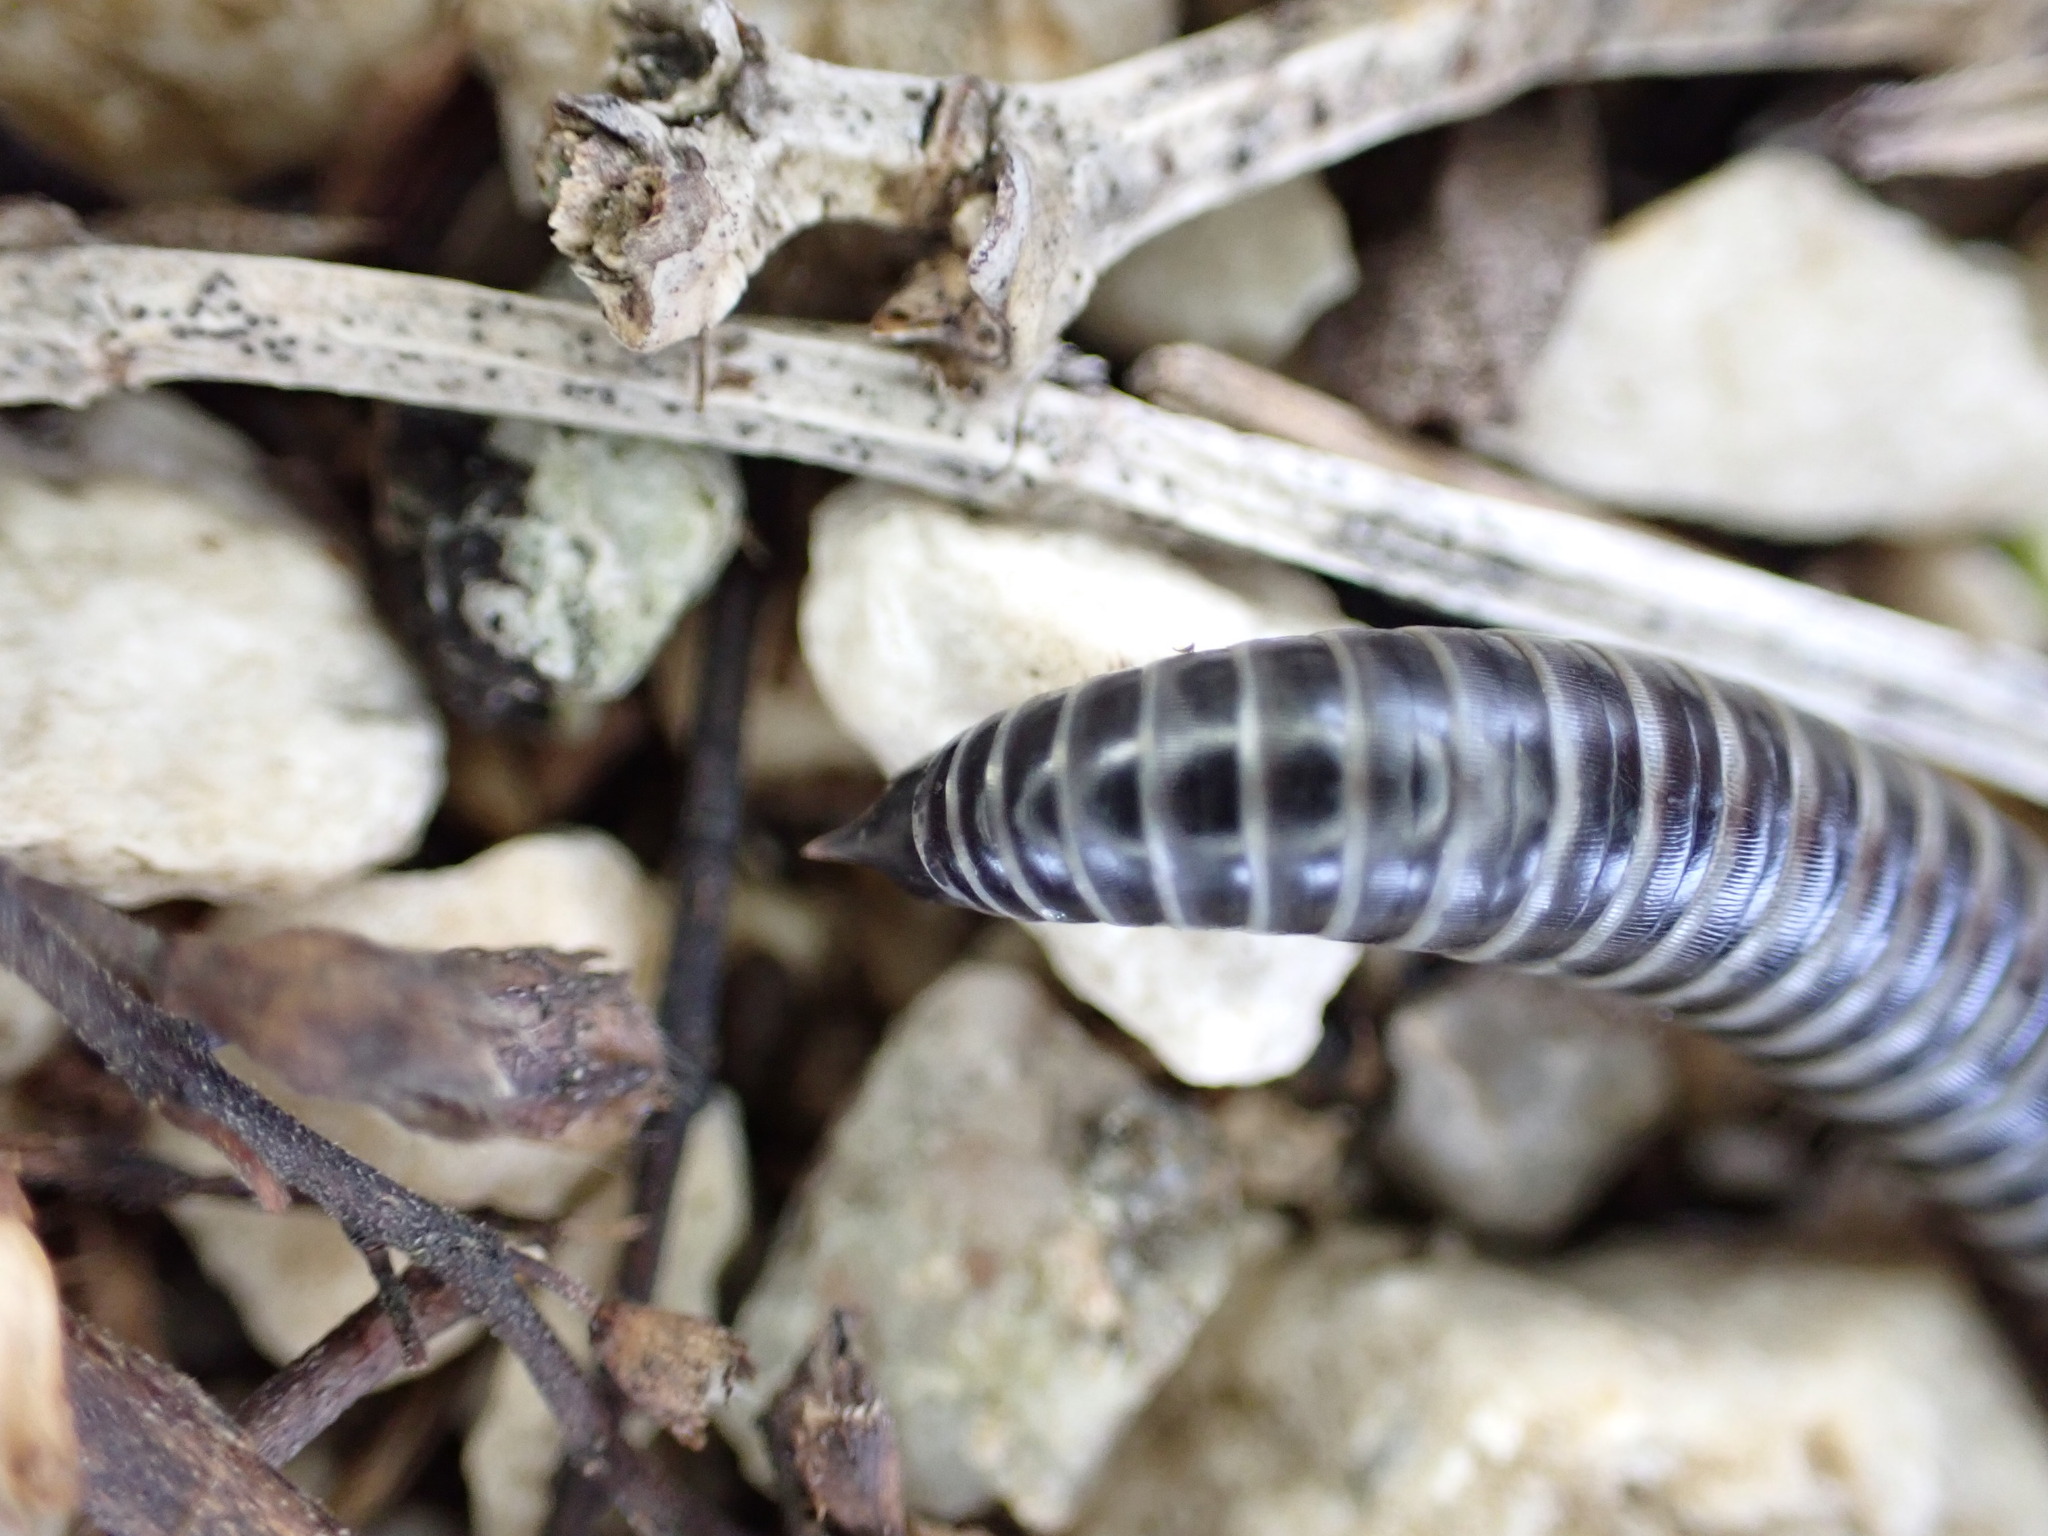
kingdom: Animalia
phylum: Arthropoda
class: Diplopoda
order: Julida
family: Julidae
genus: Ommatoiulus
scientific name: Ommatoiulus sabulosus
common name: Striped millipede
